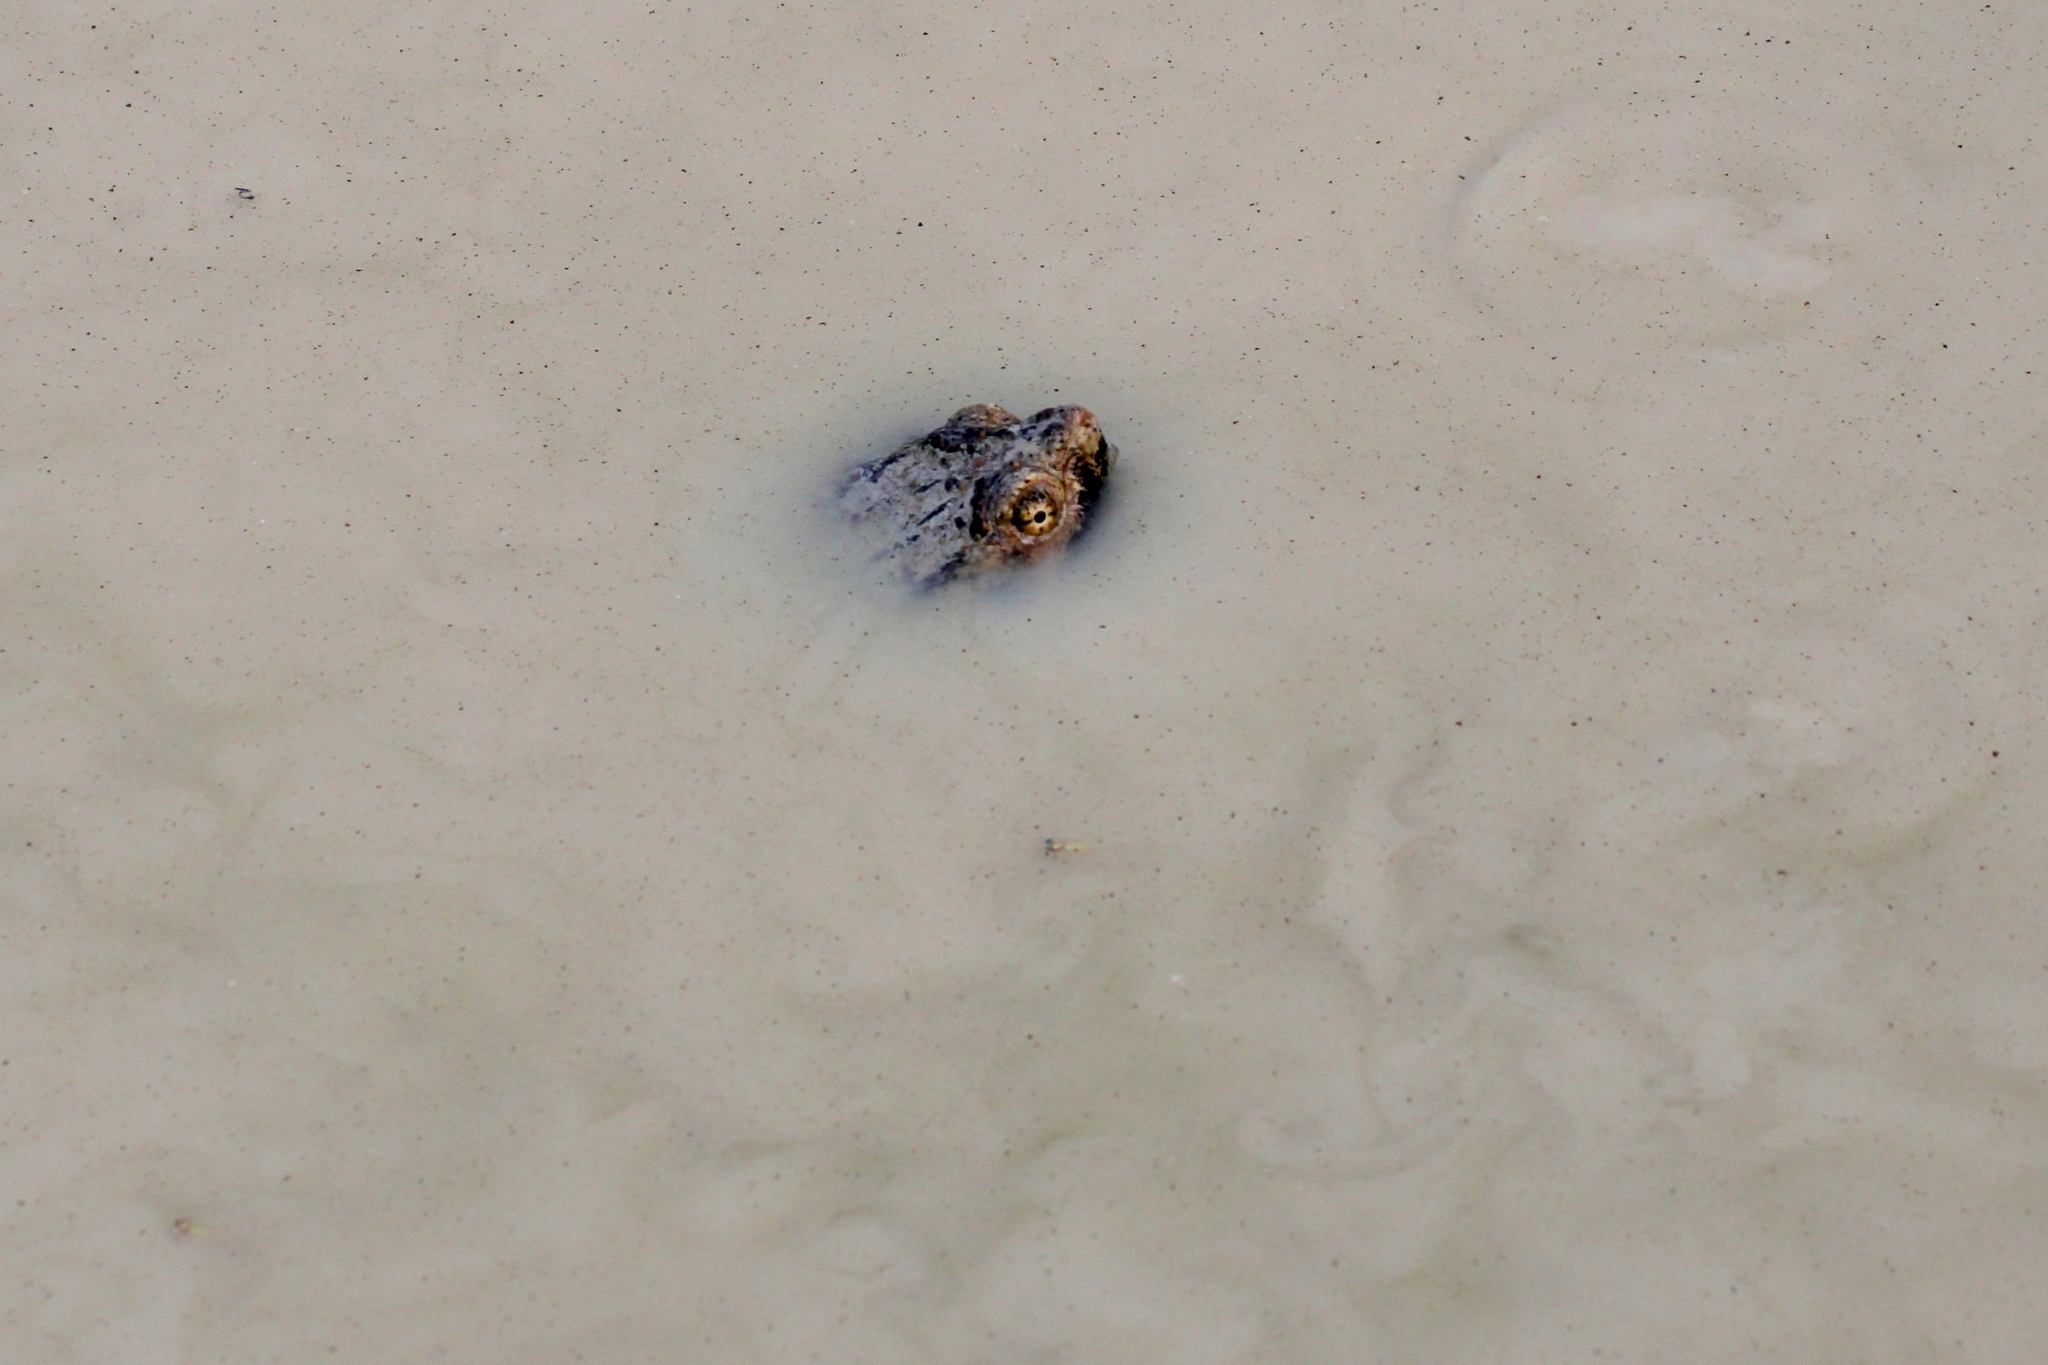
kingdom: Animalia
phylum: Chordata
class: Testudines
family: Chelydridae
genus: Chelydra
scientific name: Chelydra serpentina
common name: Common snapping turtle
